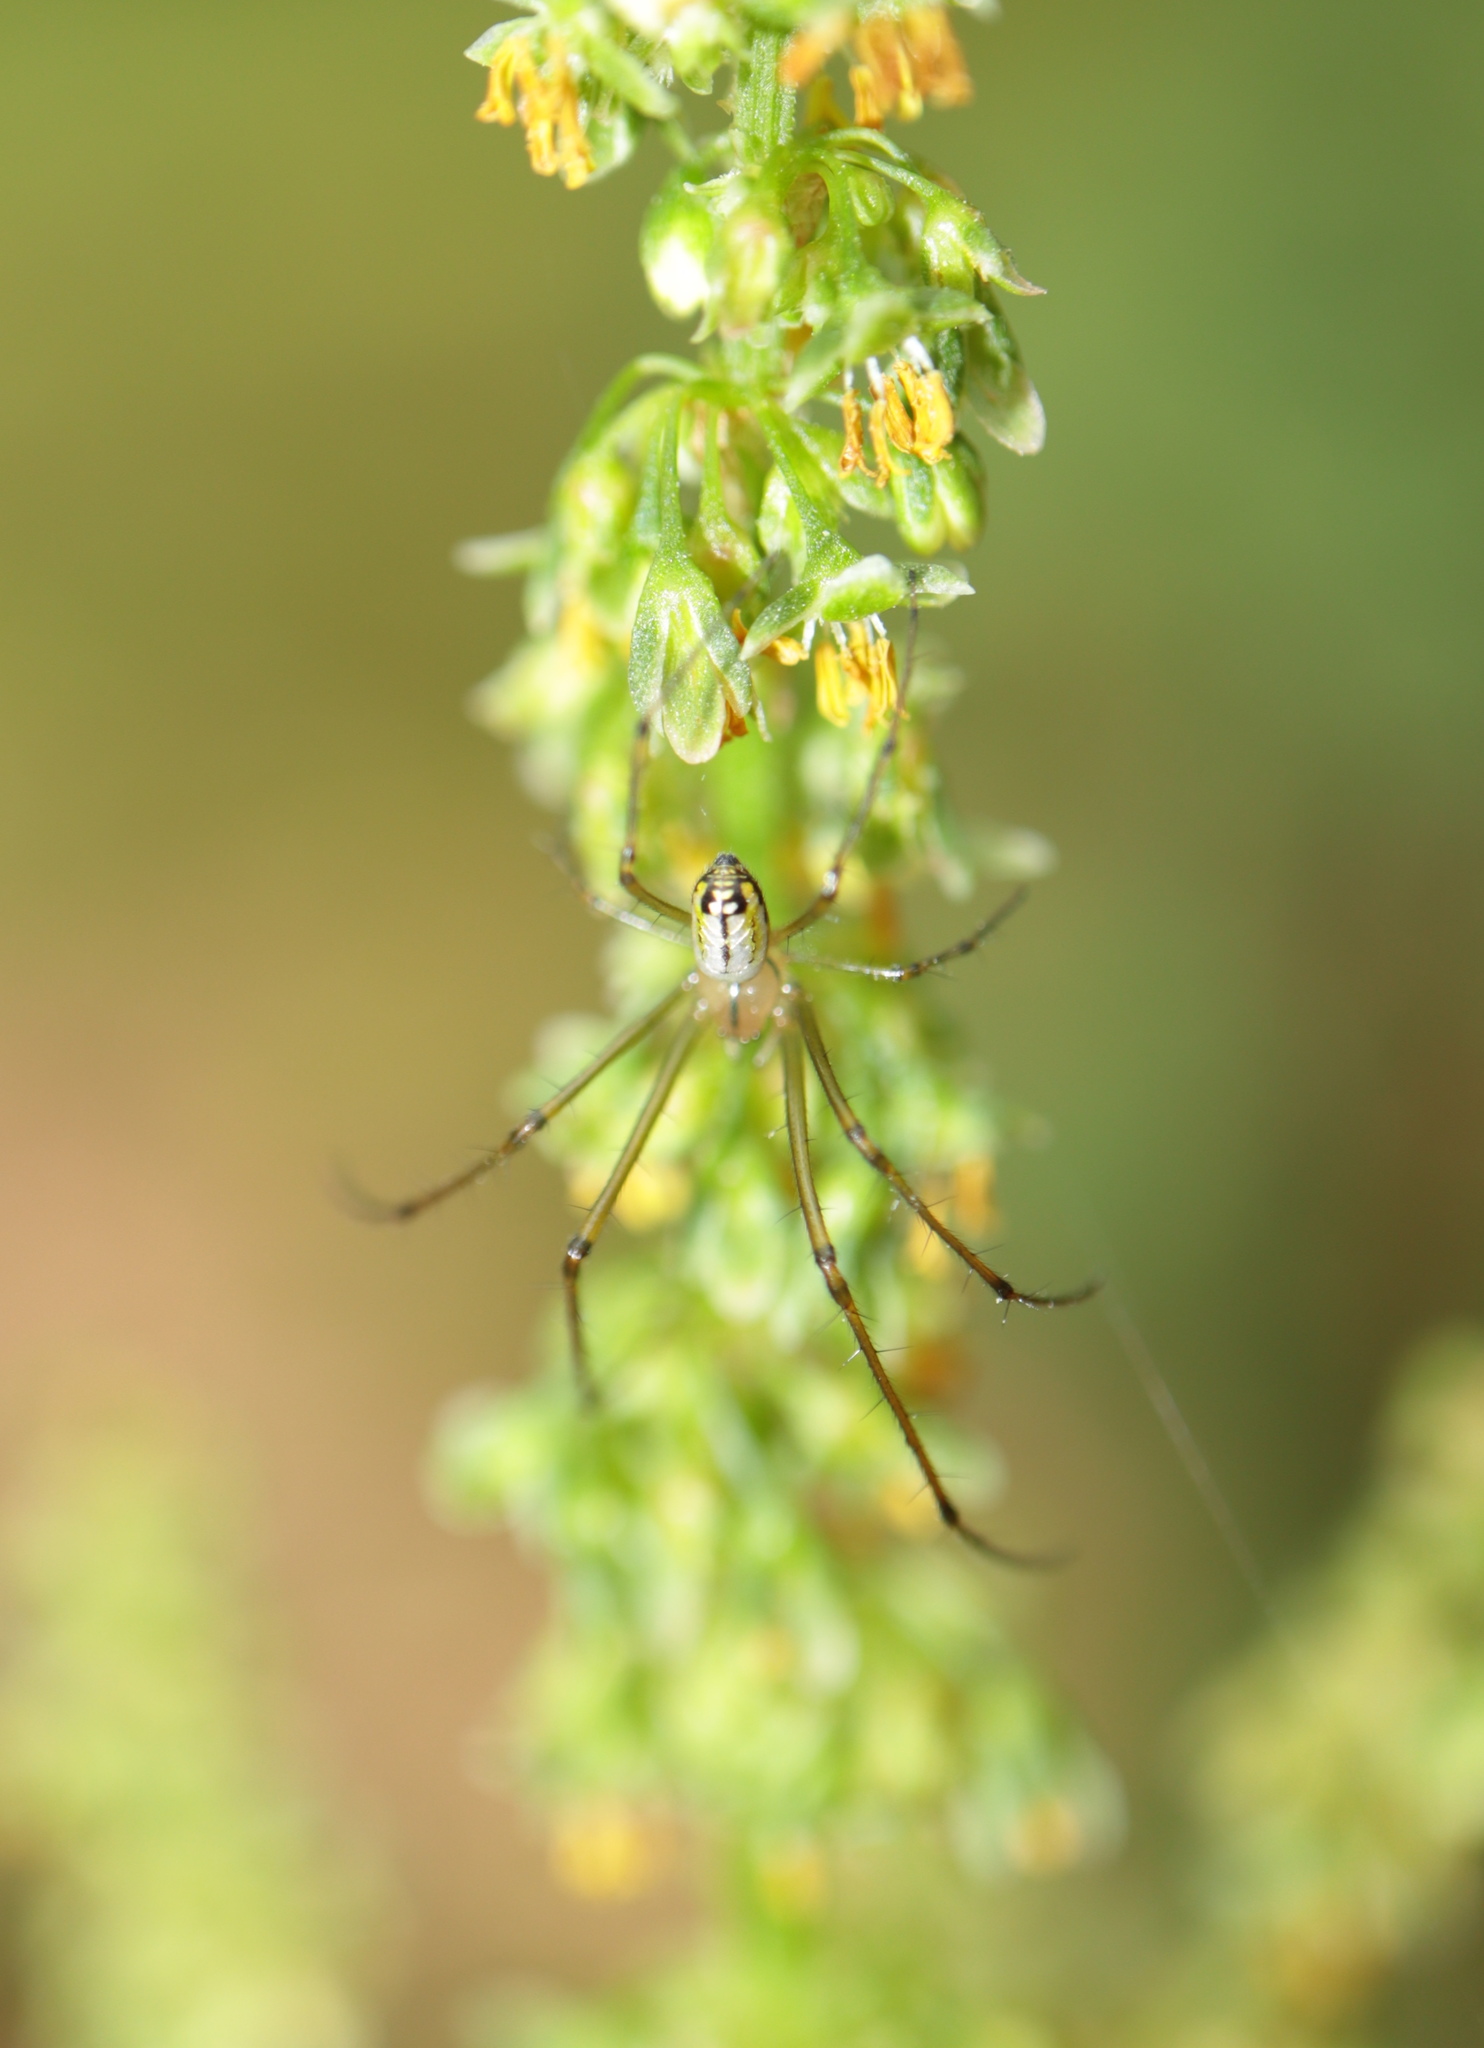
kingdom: Animalia
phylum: Arthropoda
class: Arachnida
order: Araneae
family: Tetragnathidae
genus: Leucauge
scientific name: Leucauge venusta
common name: Longjawed orb weavers
